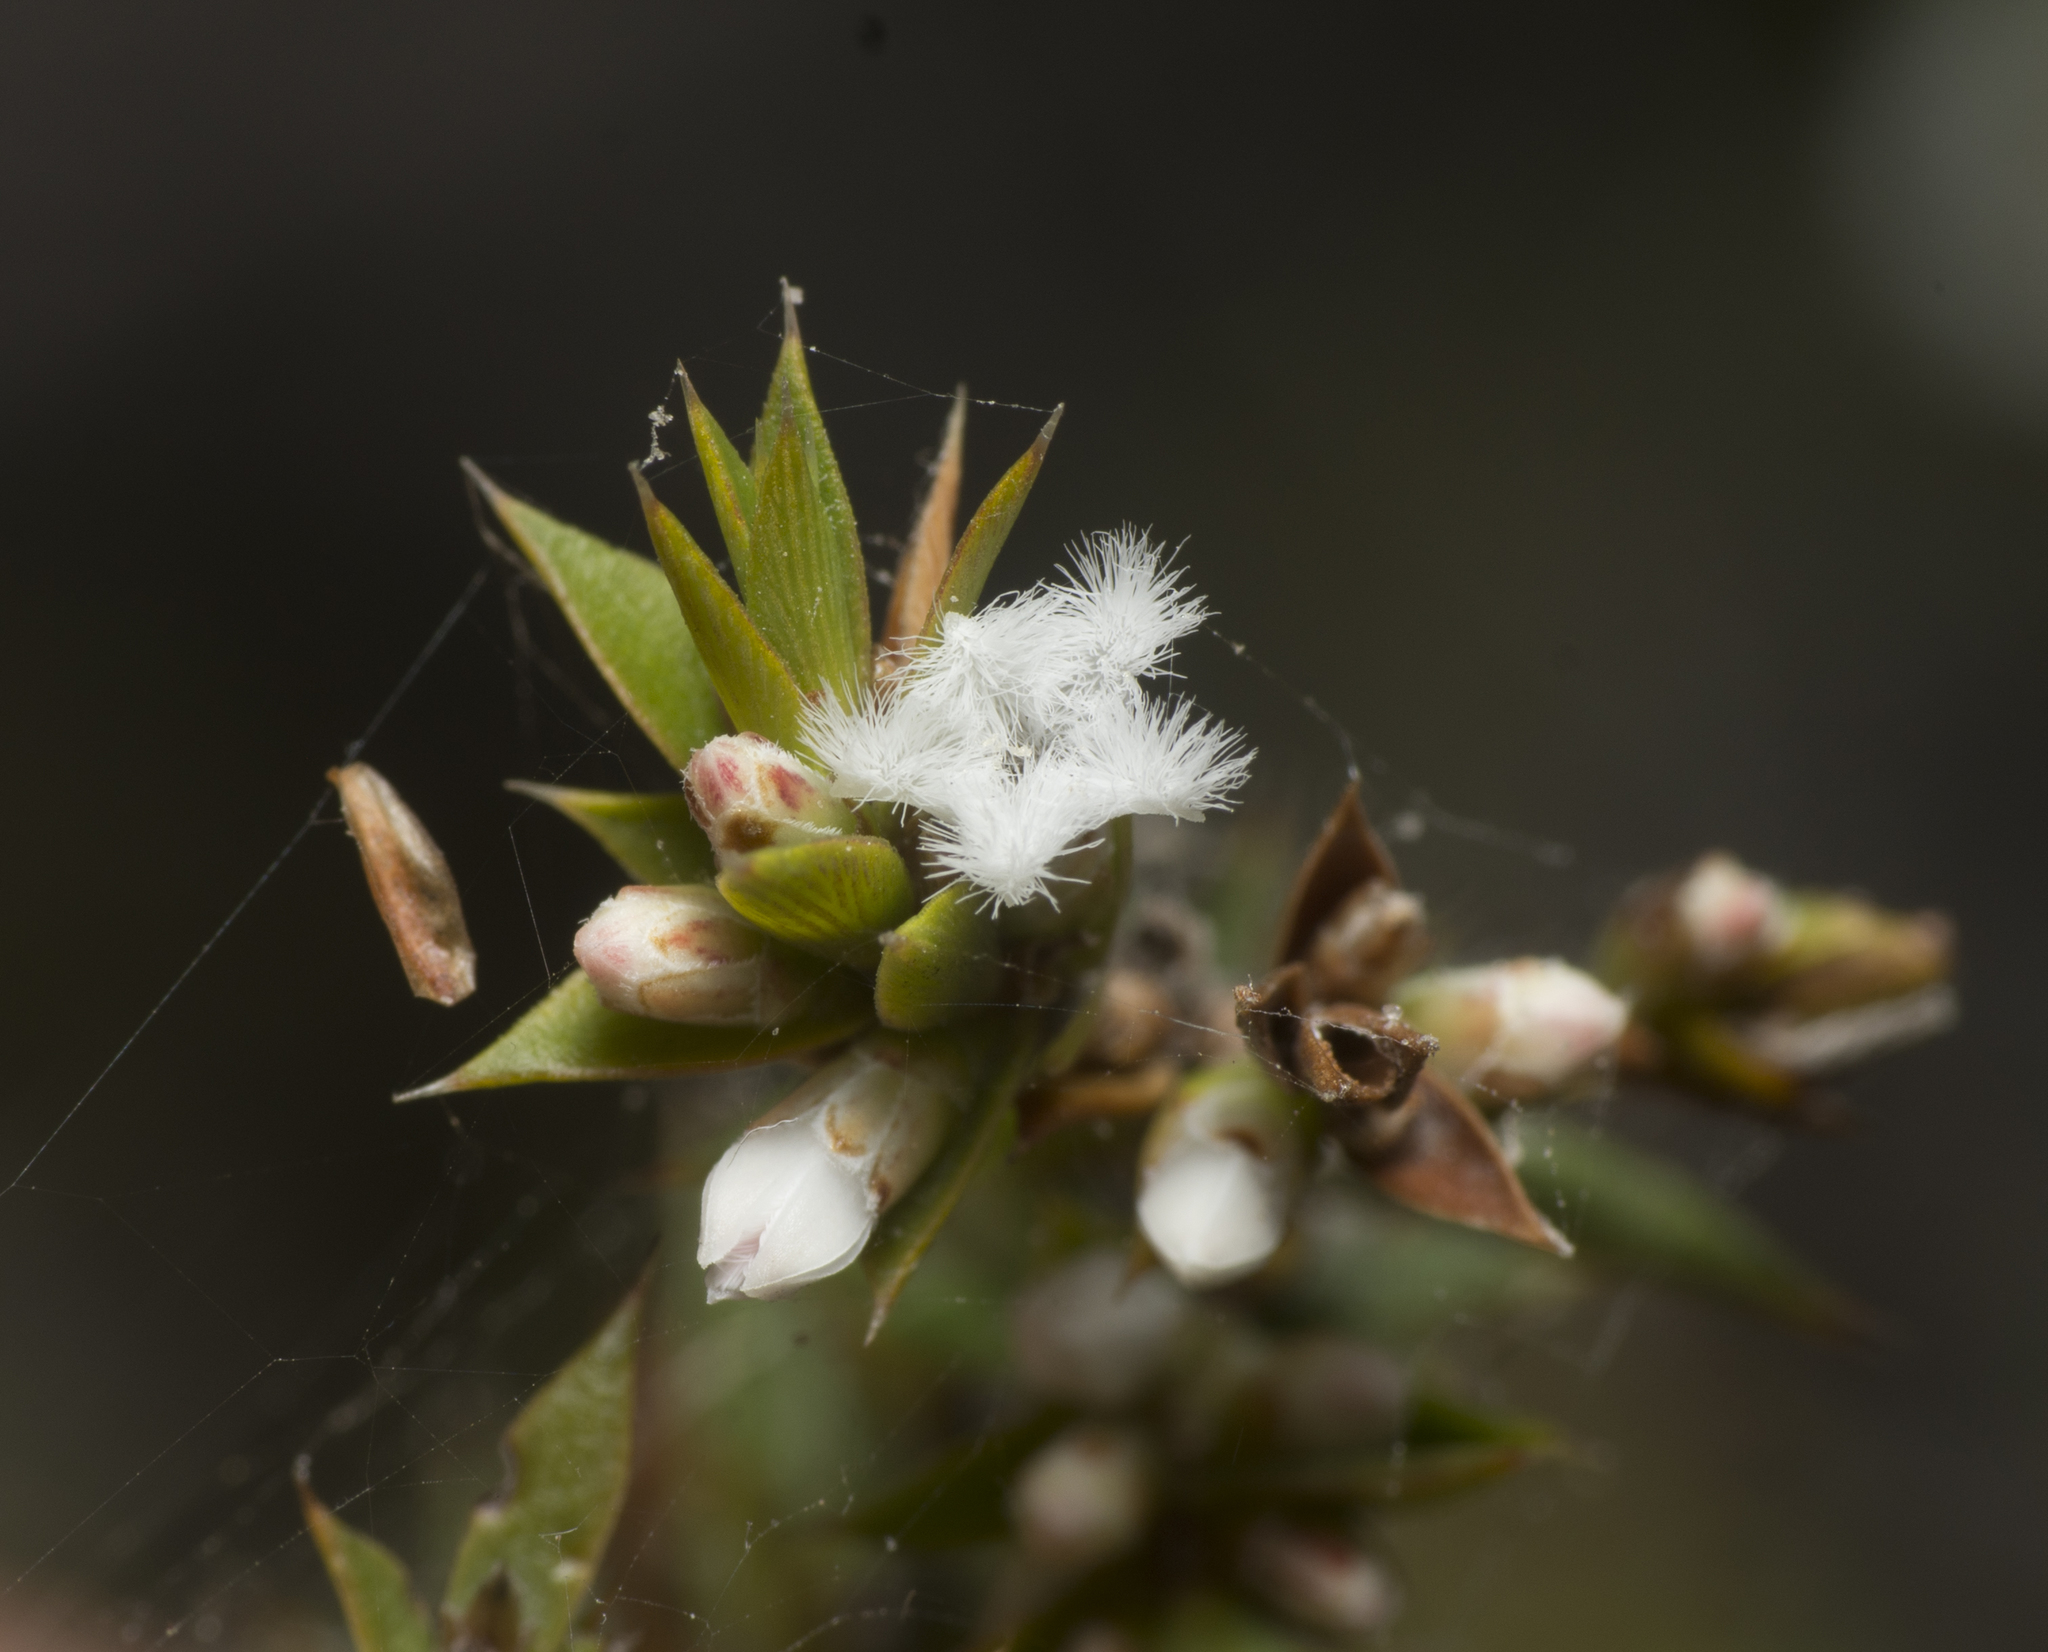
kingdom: Plantae
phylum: Tracheophyta
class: Magnoliopsida
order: Ericales
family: Ericaceae
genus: Styphelia
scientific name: Styphelia
